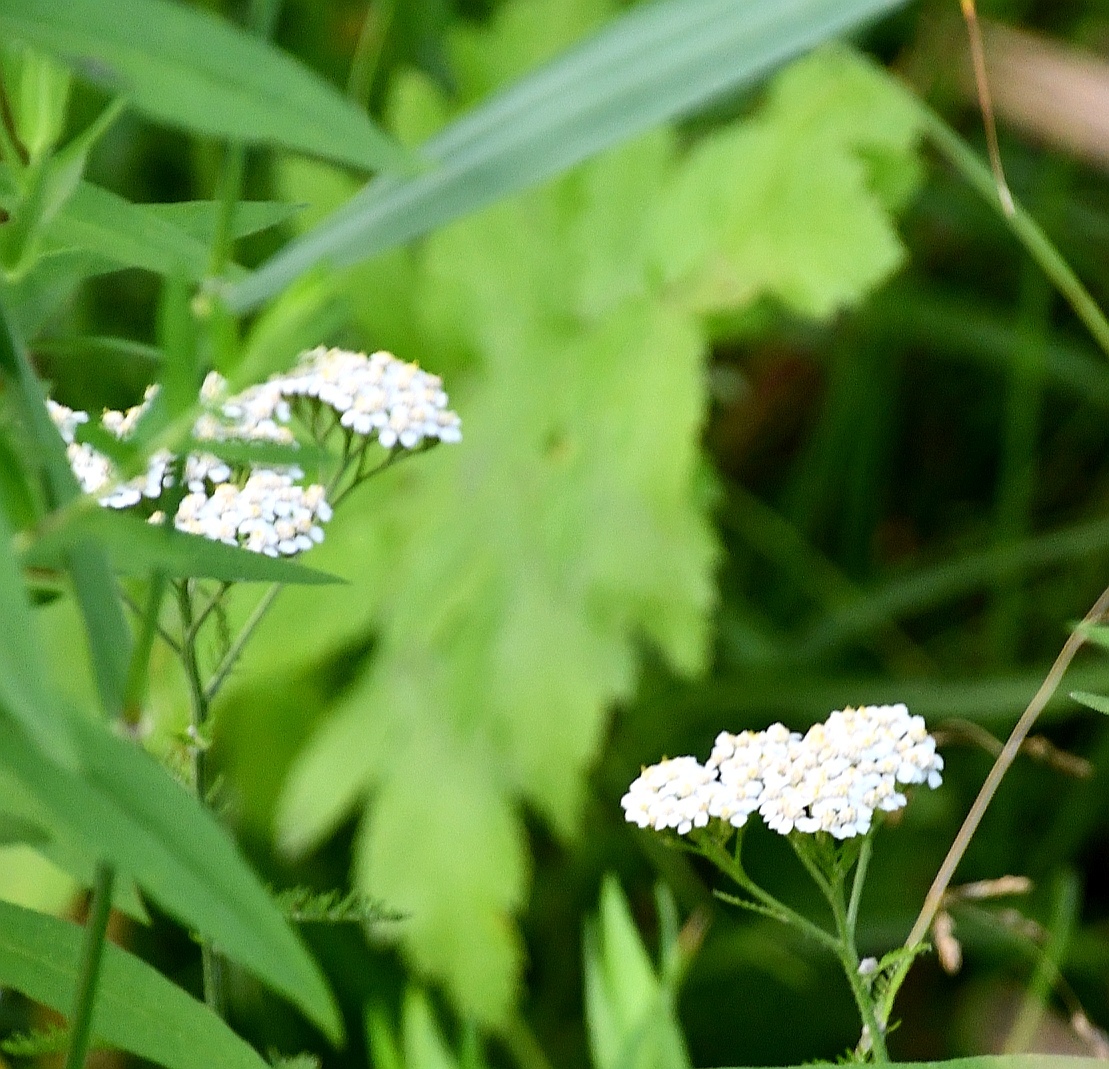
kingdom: Plantae
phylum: Tracheophyta
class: Magnoliopsida
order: Asterales
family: Asteraceae
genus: Achillea
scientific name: Achillea millefolium
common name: Yarrow
